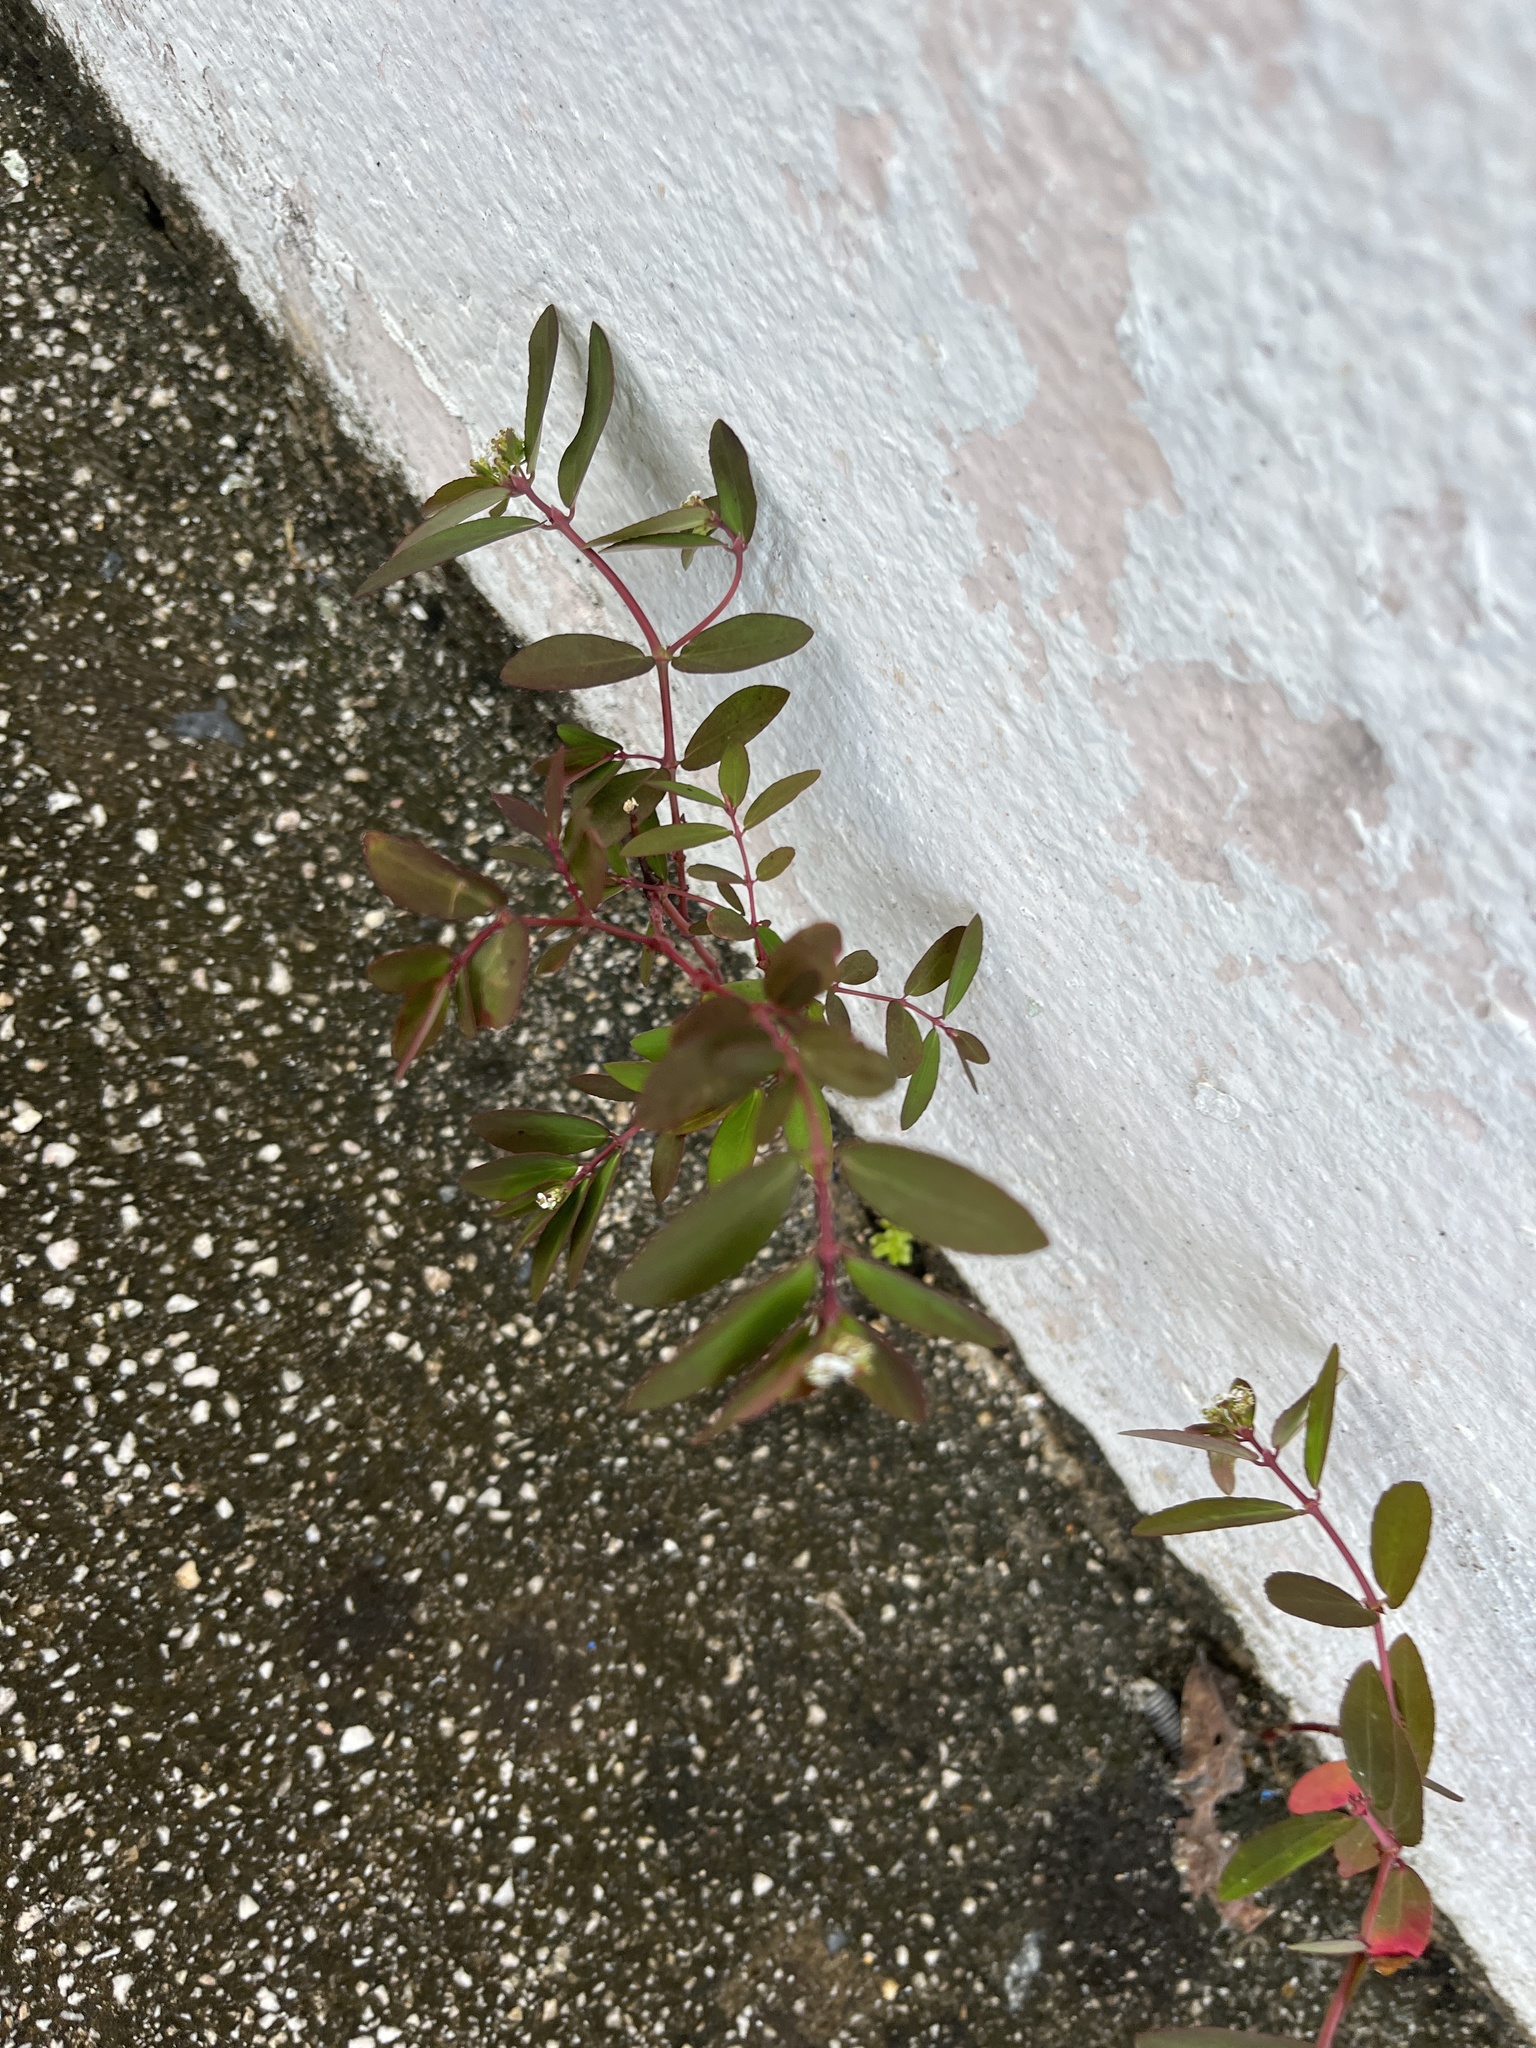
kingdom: Plantae
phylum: Tracheophyta
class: Magnoliopsida
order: Malpighiales
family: Euphorbiaceae
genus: Euphorbia
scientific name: Euphorbia hypericifolia
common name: Graceful sandmat
